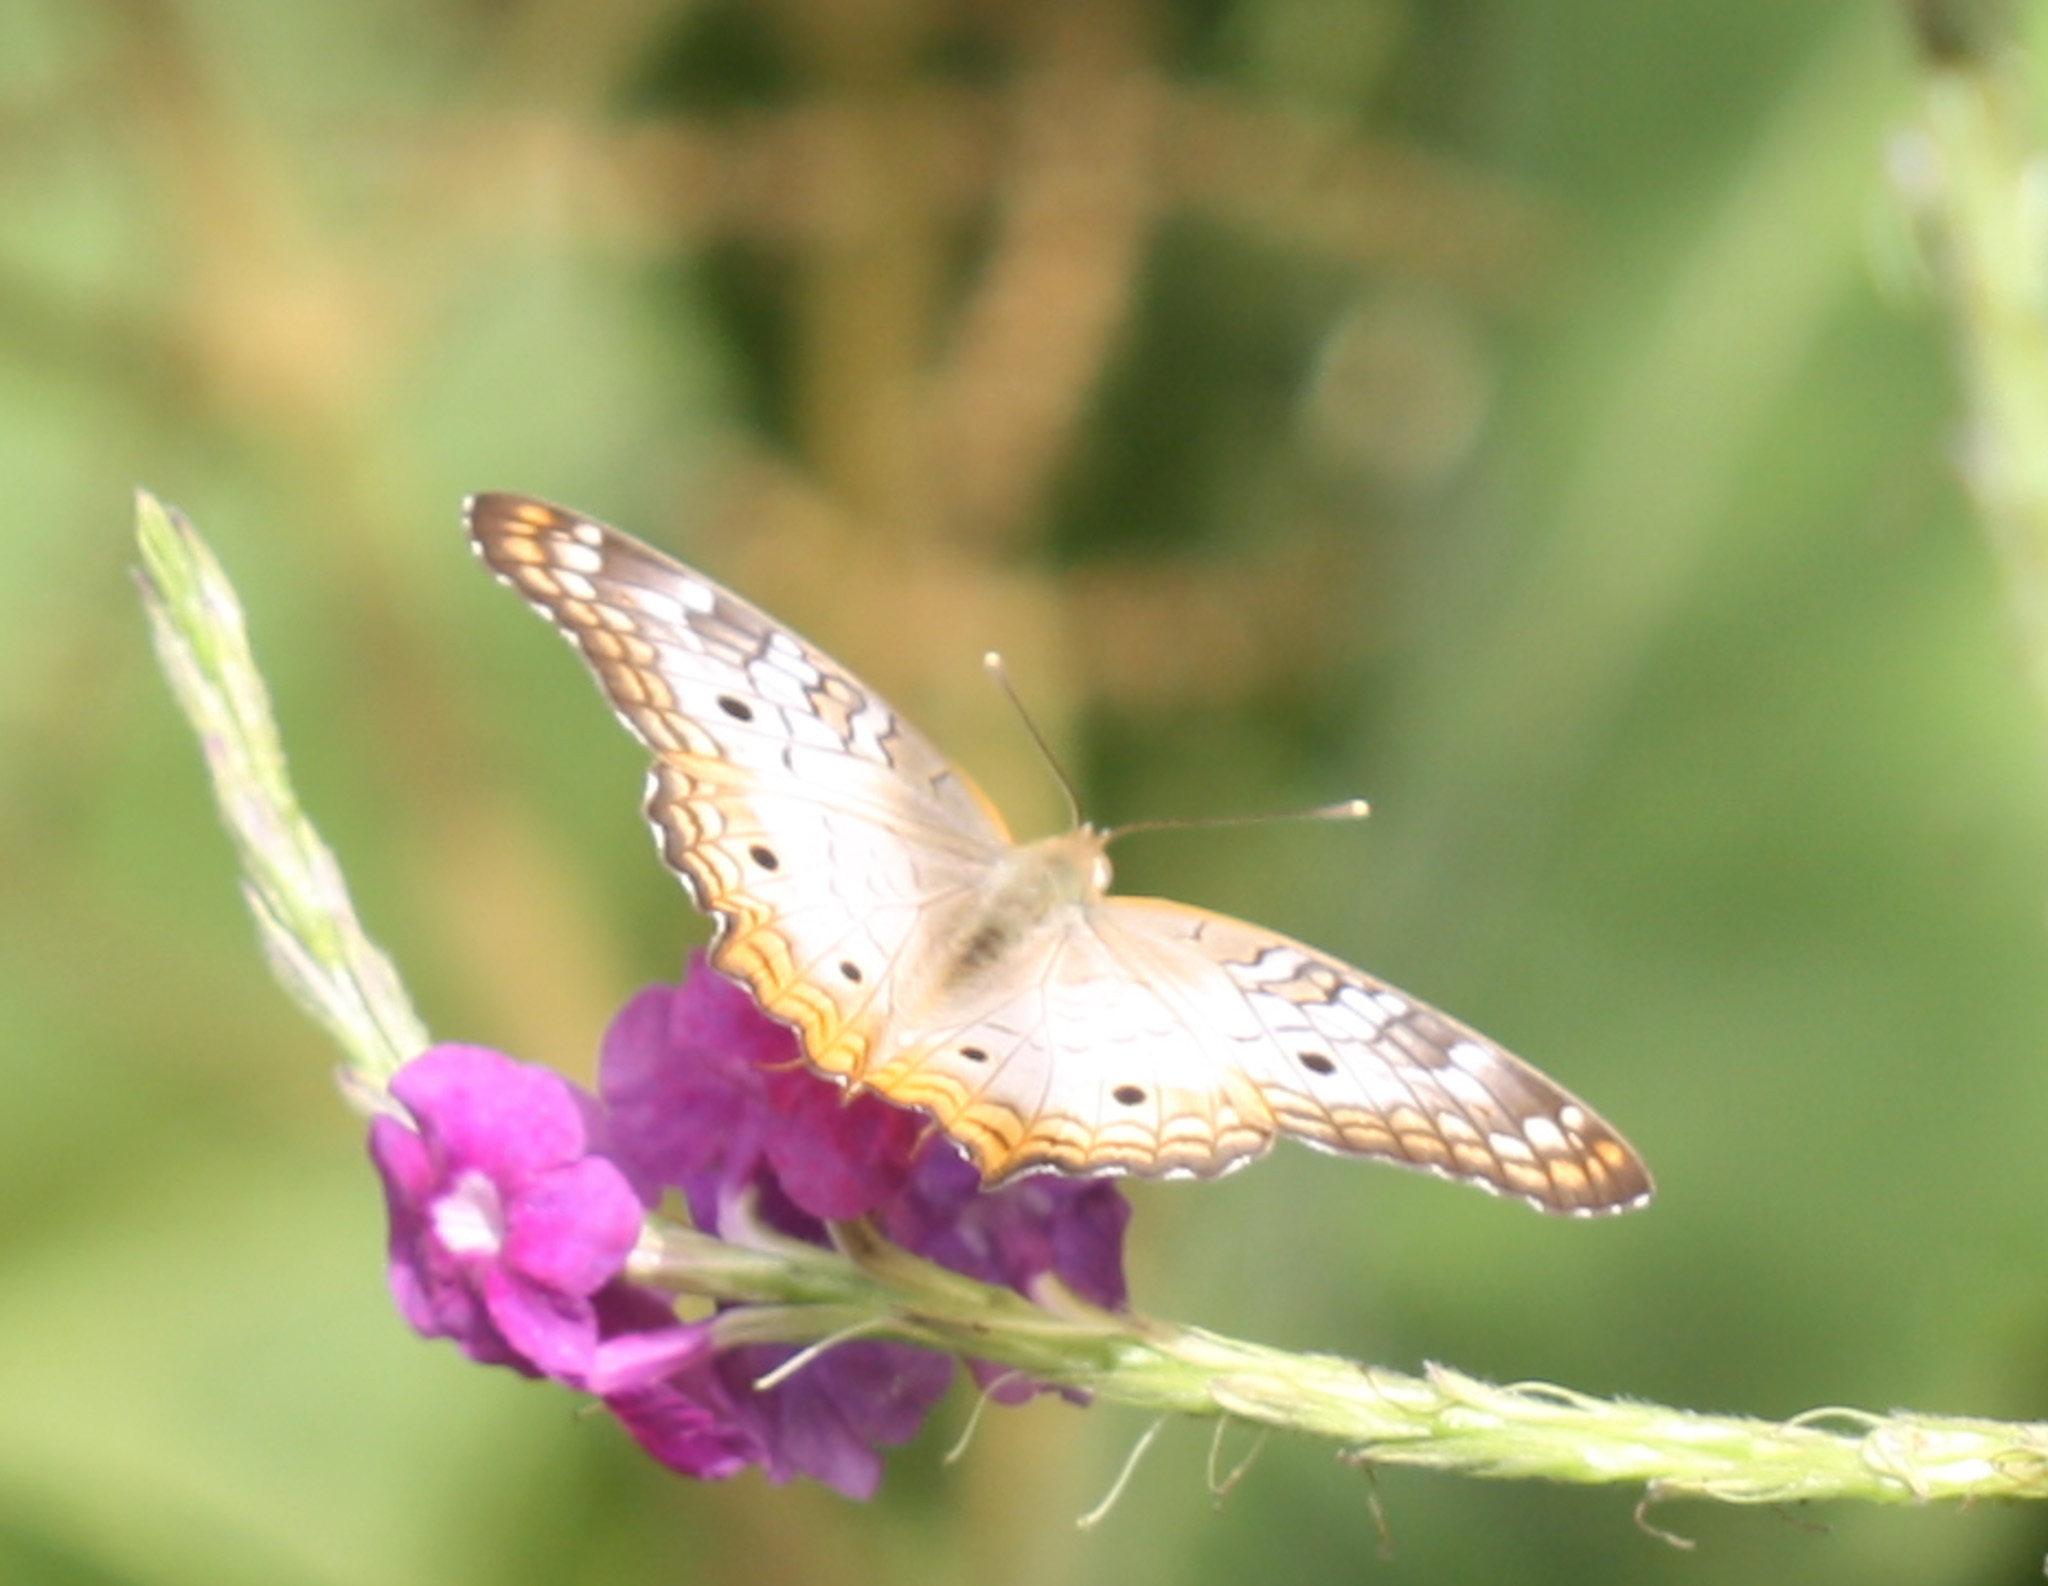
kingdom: Animalia
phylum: Arthropoda
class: Insecta
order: Lepidoptera
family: Nymphalidae
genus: Anartia
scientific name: Anartia jatrophae
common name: White peacock
